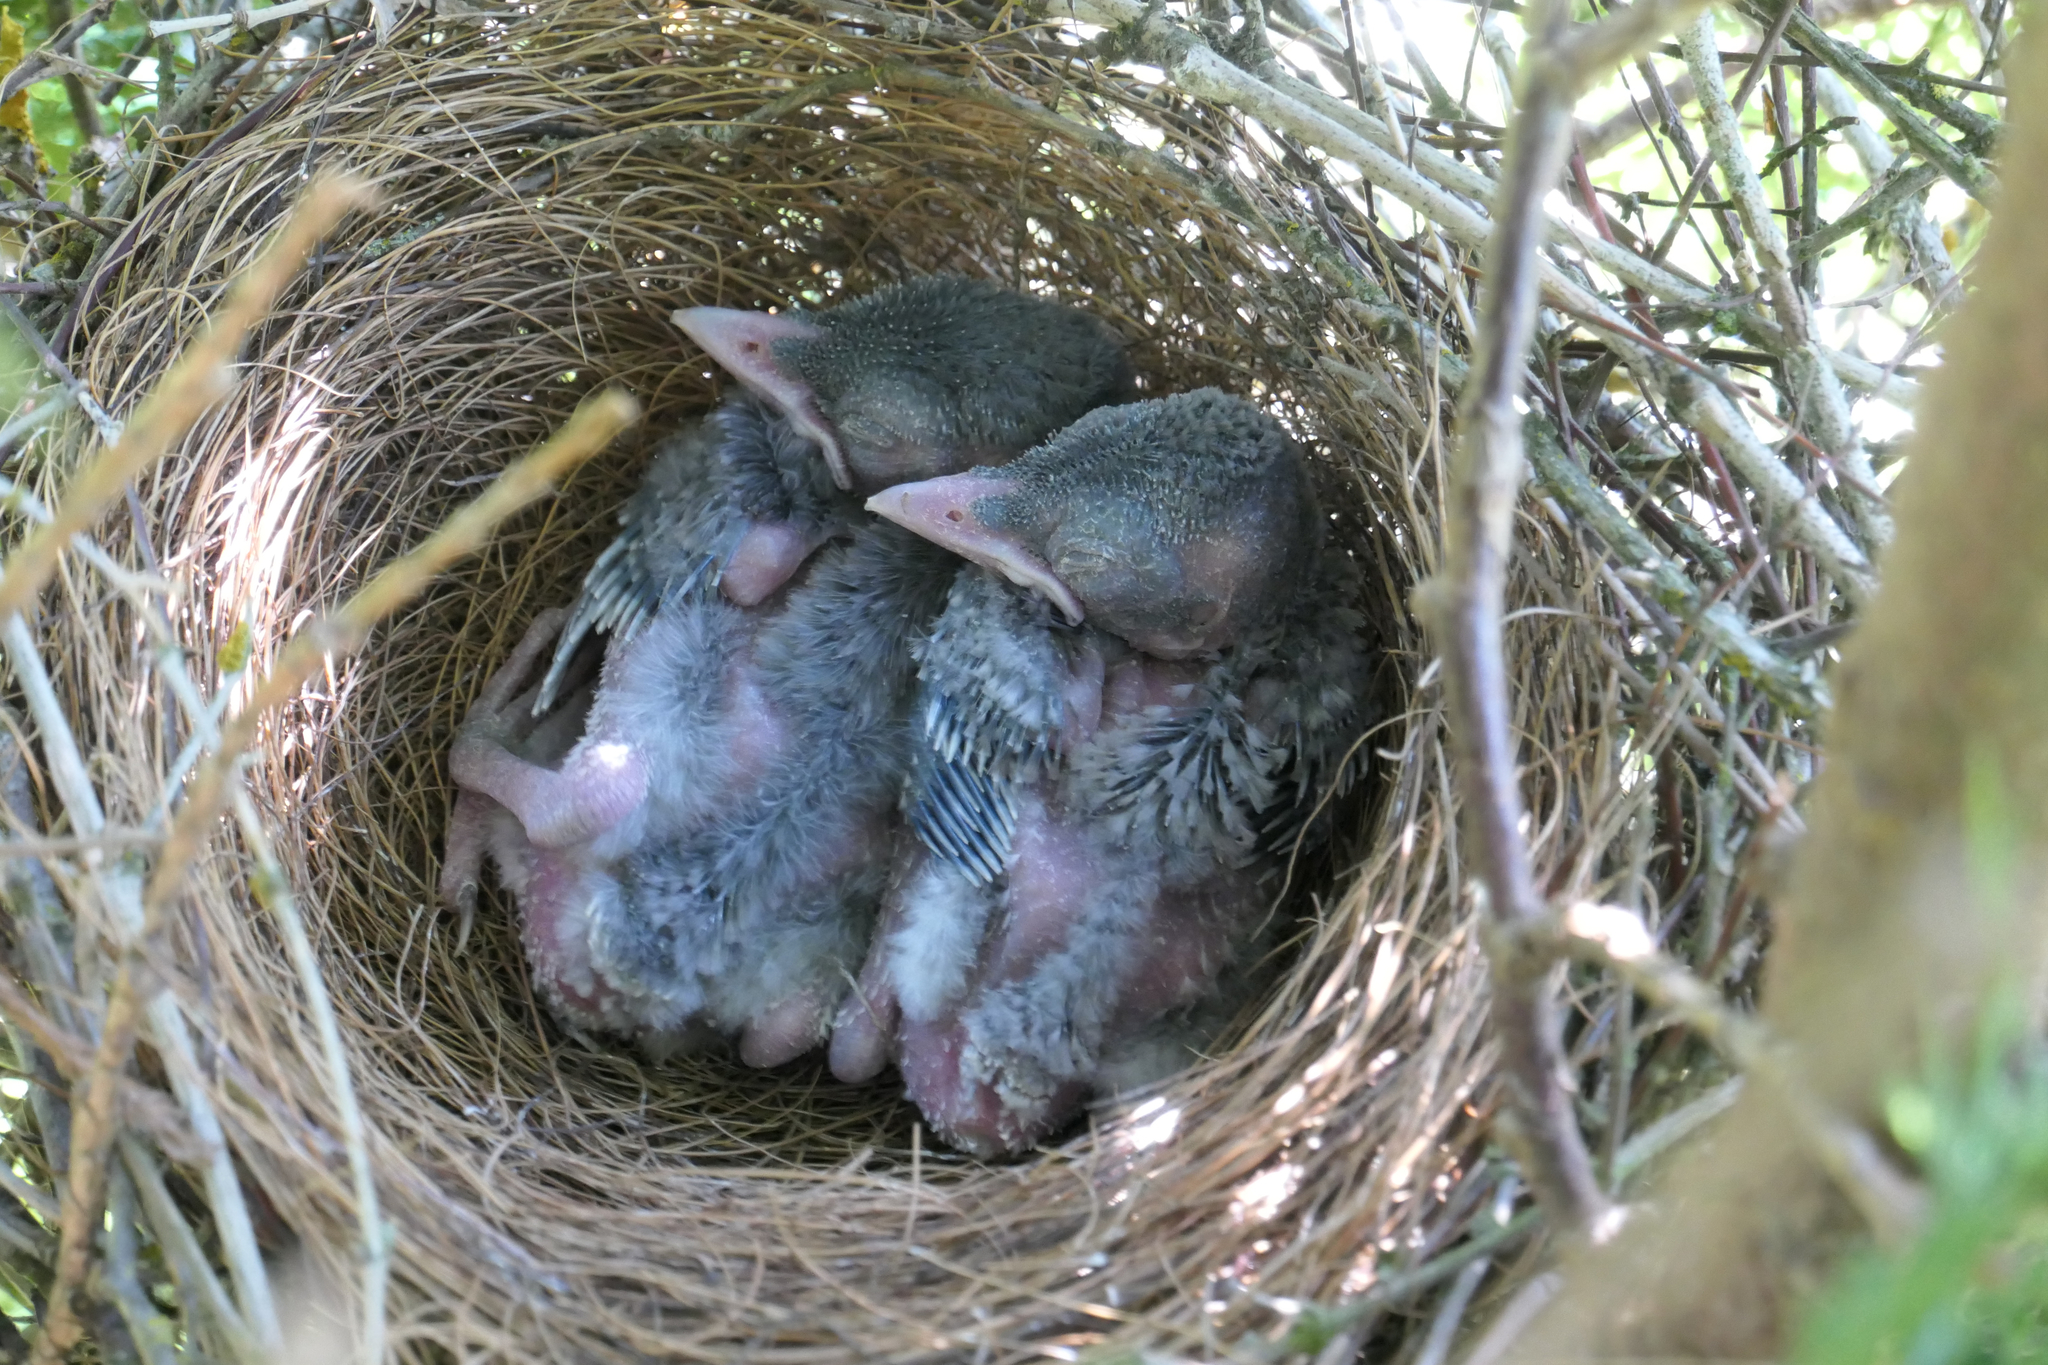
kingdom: Animalia
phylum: Chordata
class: Aves
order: Passeriformes
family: Corvidae
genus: Aphelocoma
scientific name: Aphelocoma californica
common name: California scrub-jay
